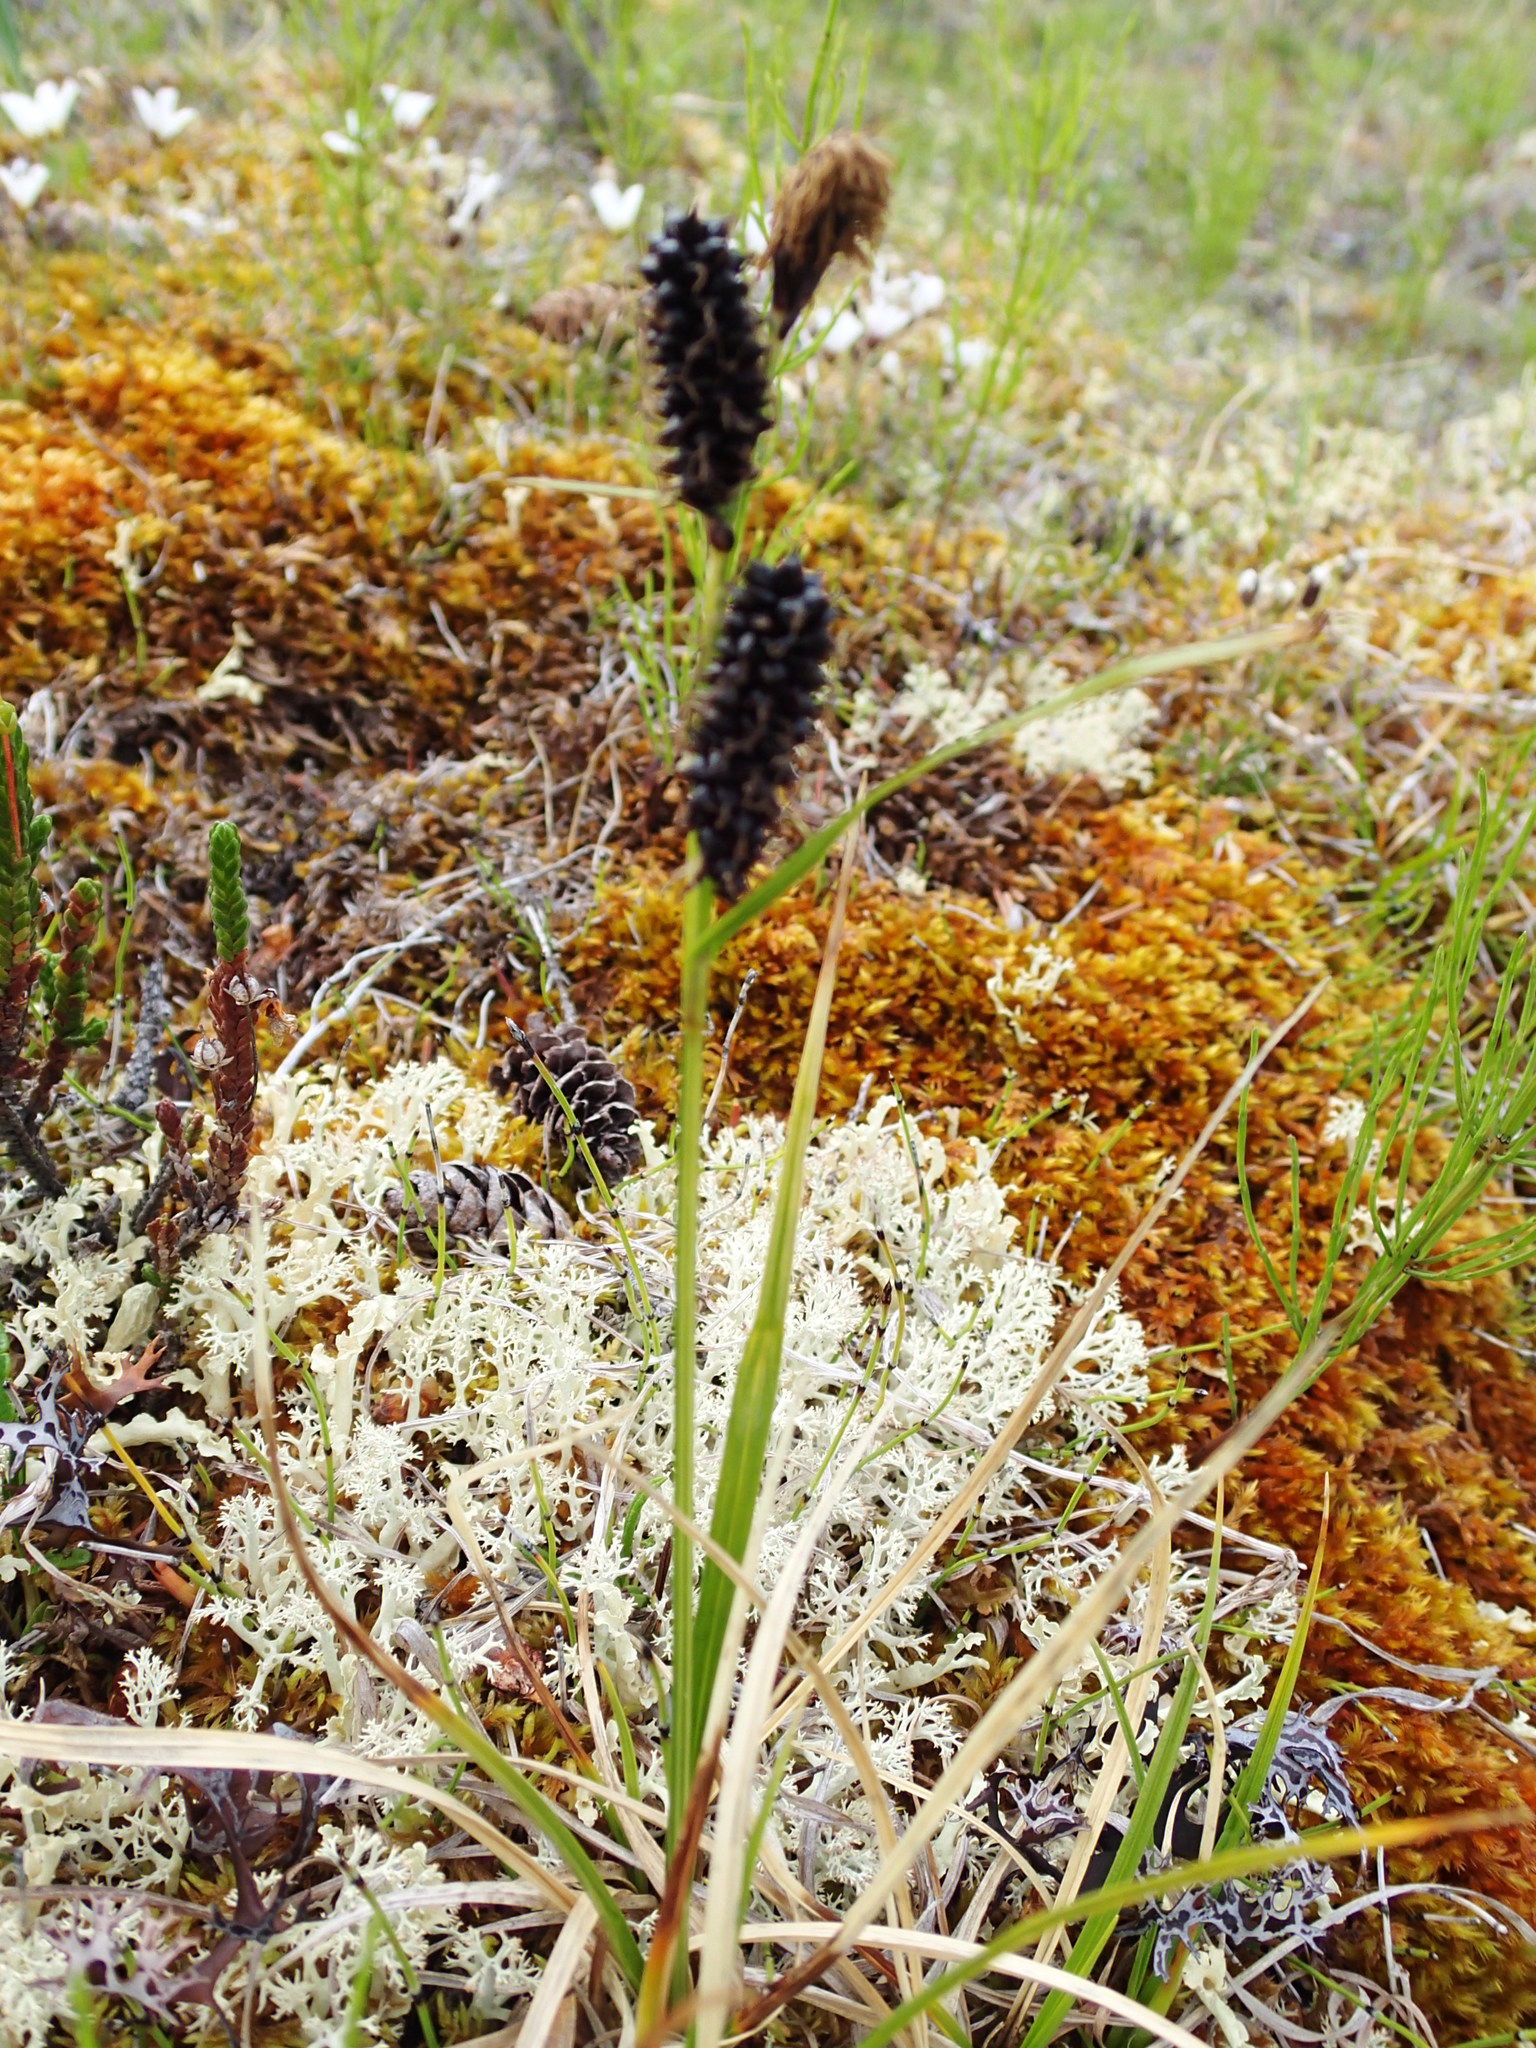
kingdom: Plantae
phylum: Tracheophyta
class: Liliopsida
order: Poales
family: Cyperaceae
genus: Carex
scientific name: Carex membranacea
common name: Fragile sedge
